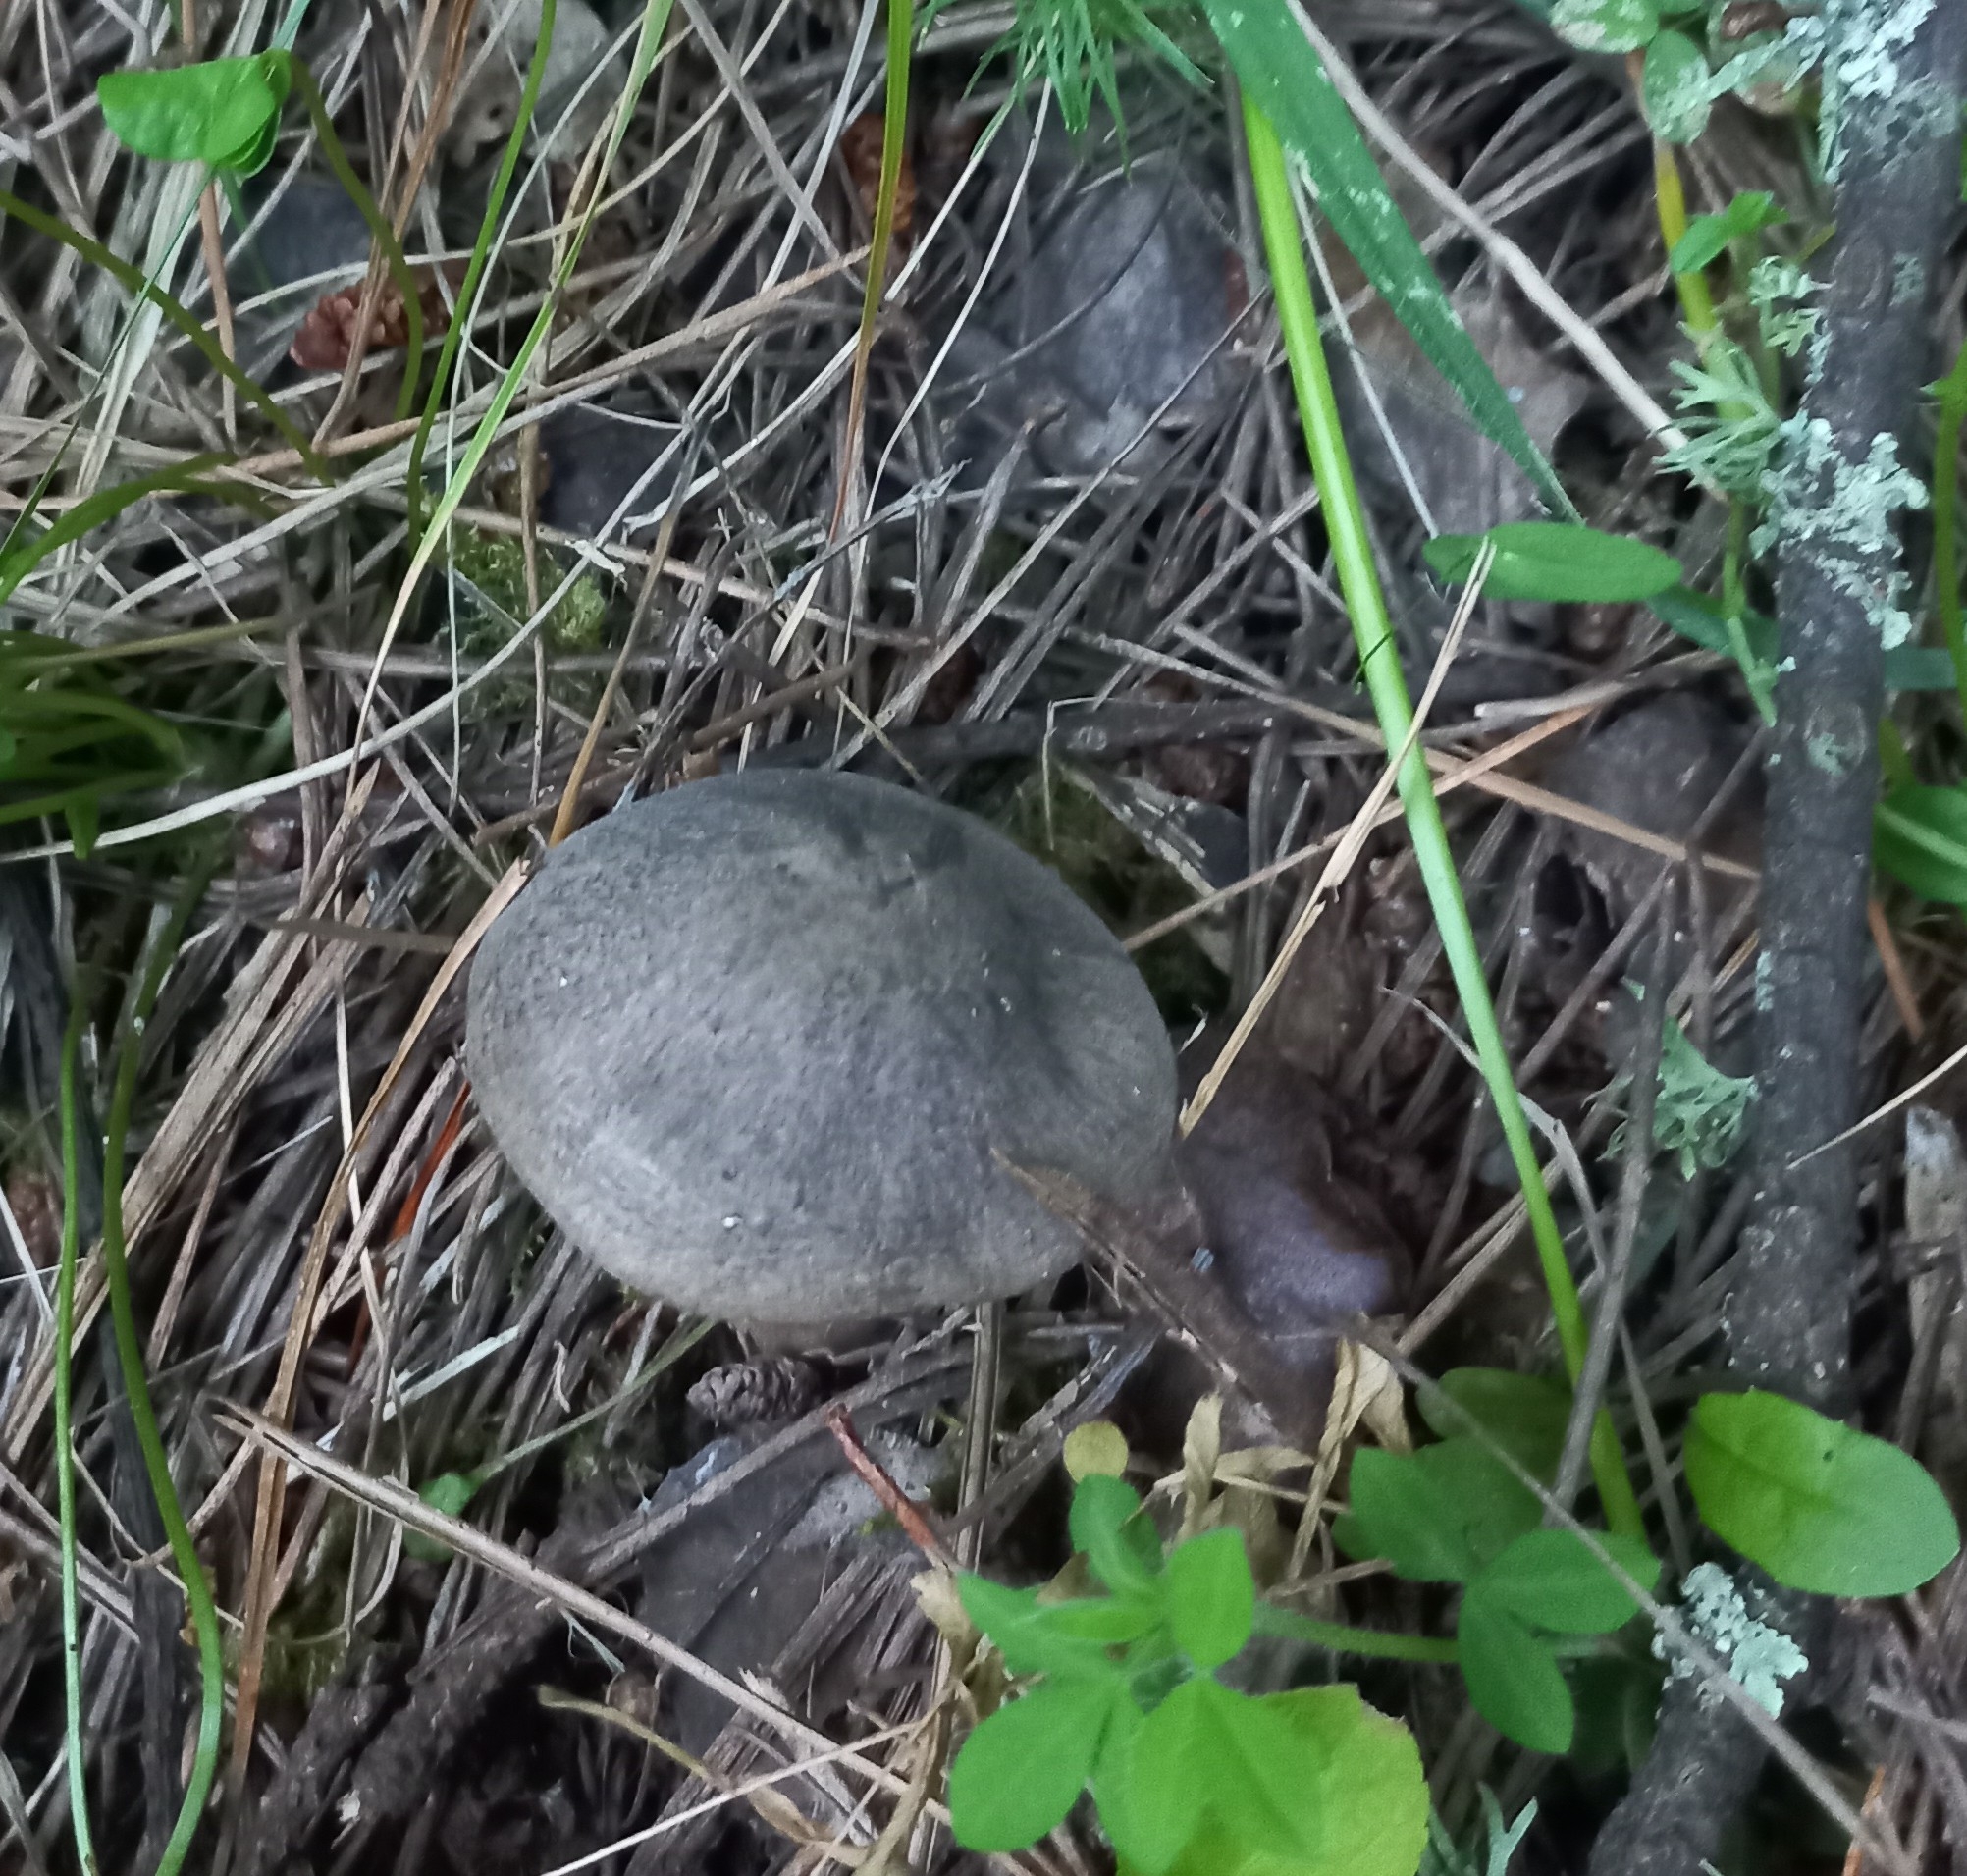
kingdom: Fungi
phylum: Basidiomycota
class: Agaricomycetes
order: Agaricales
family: Tricholomataceae
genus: Tricholoma
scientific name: Tricholoma terreum
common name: Grey knight
